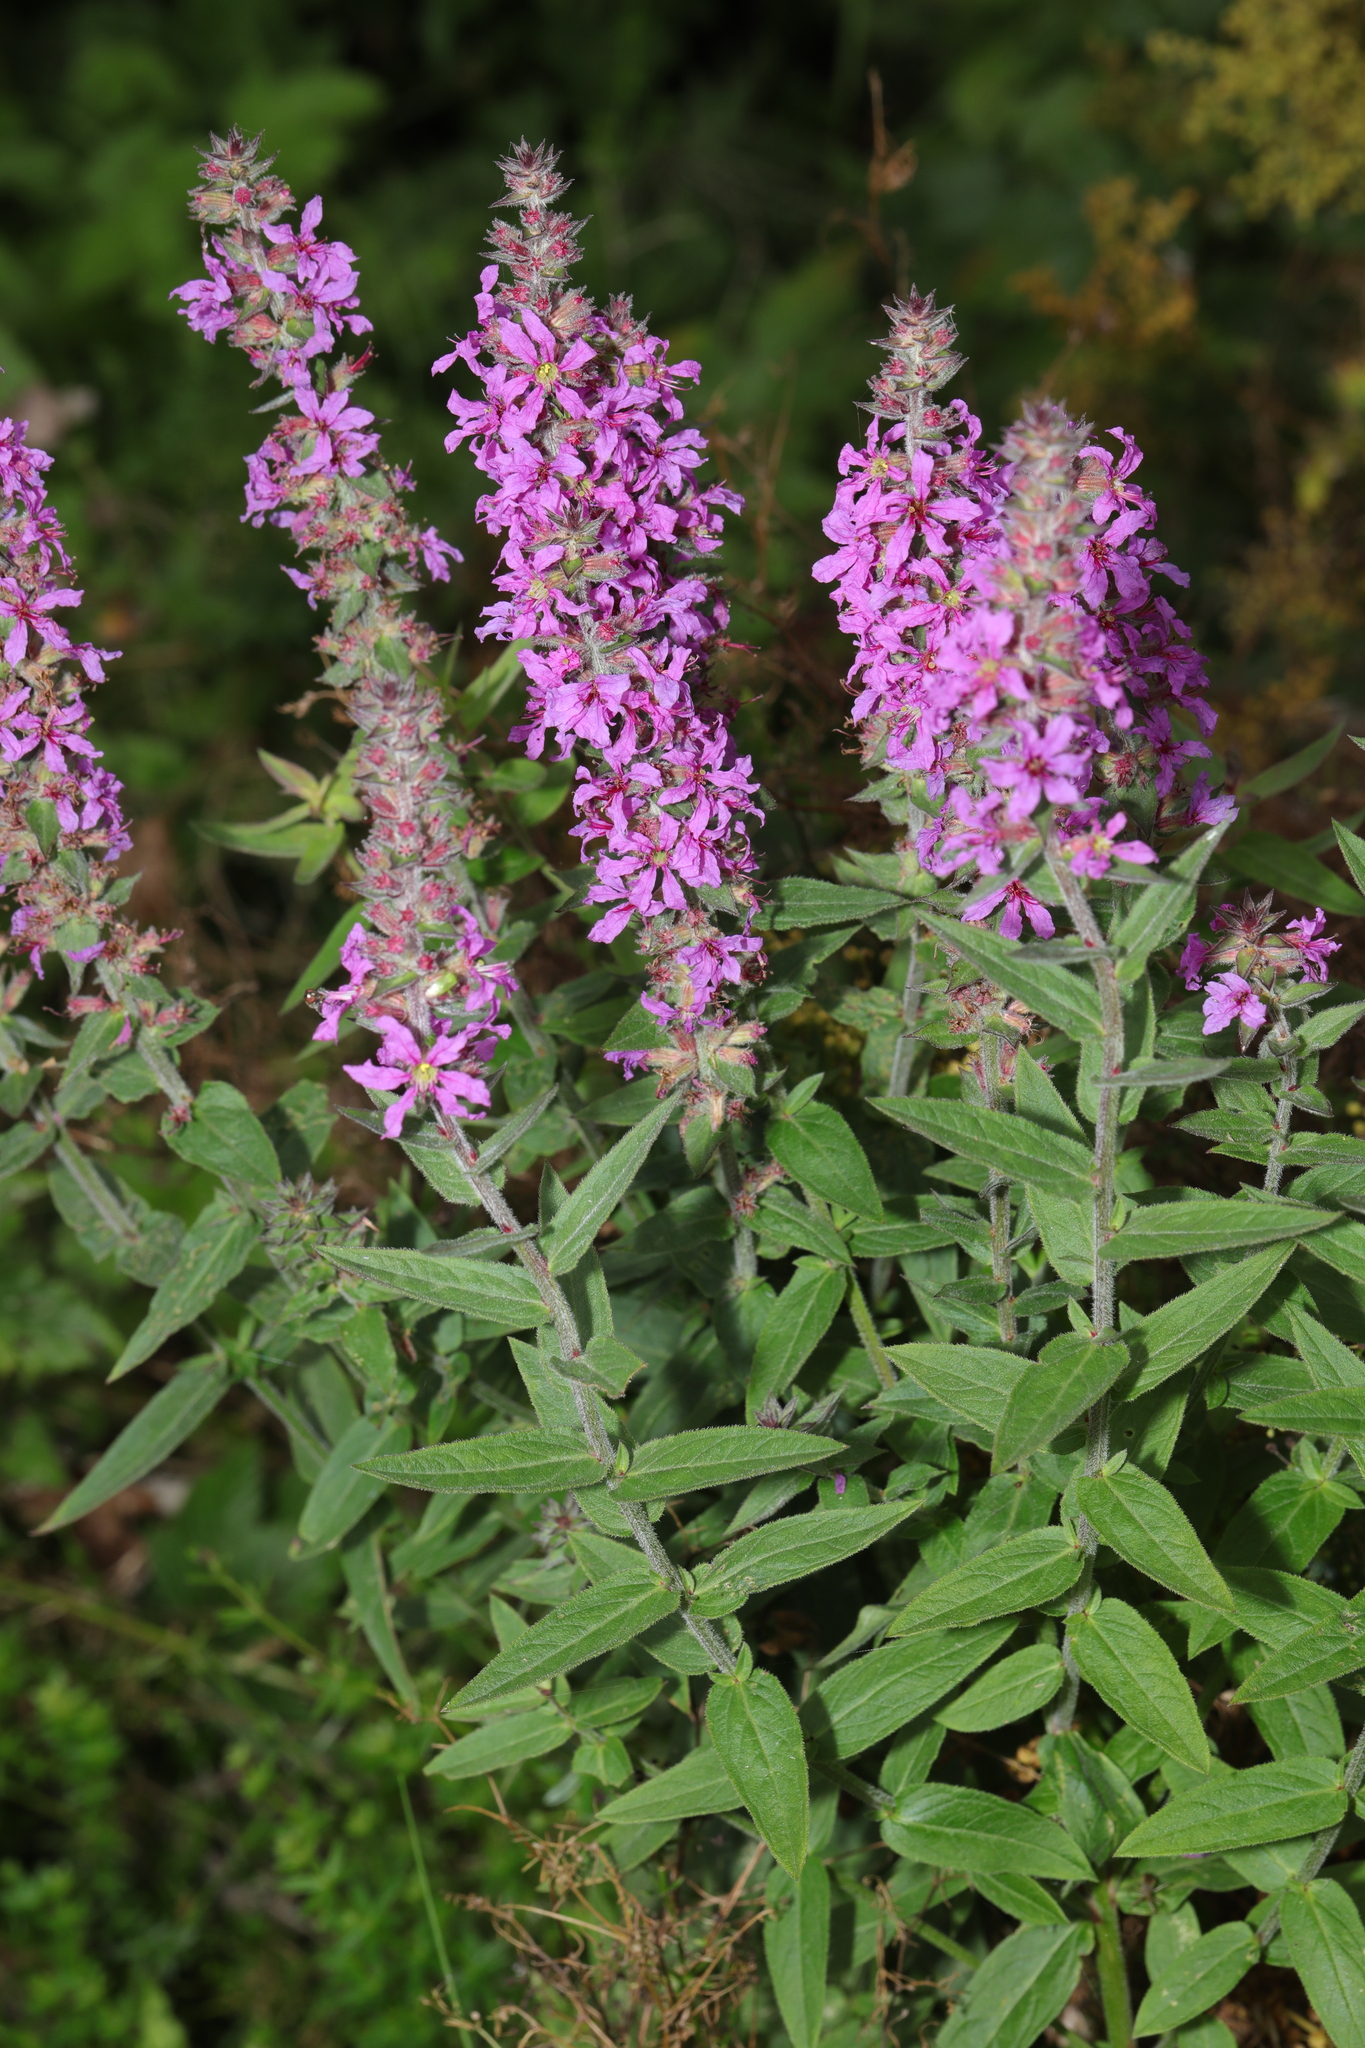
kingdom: Plantae
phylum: Tracheophyta
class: Magnoliopsida
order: Myrtales
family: Lythraceae
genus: Lythrum
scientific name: Lythrum salicaria
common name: Purple loosestrife
